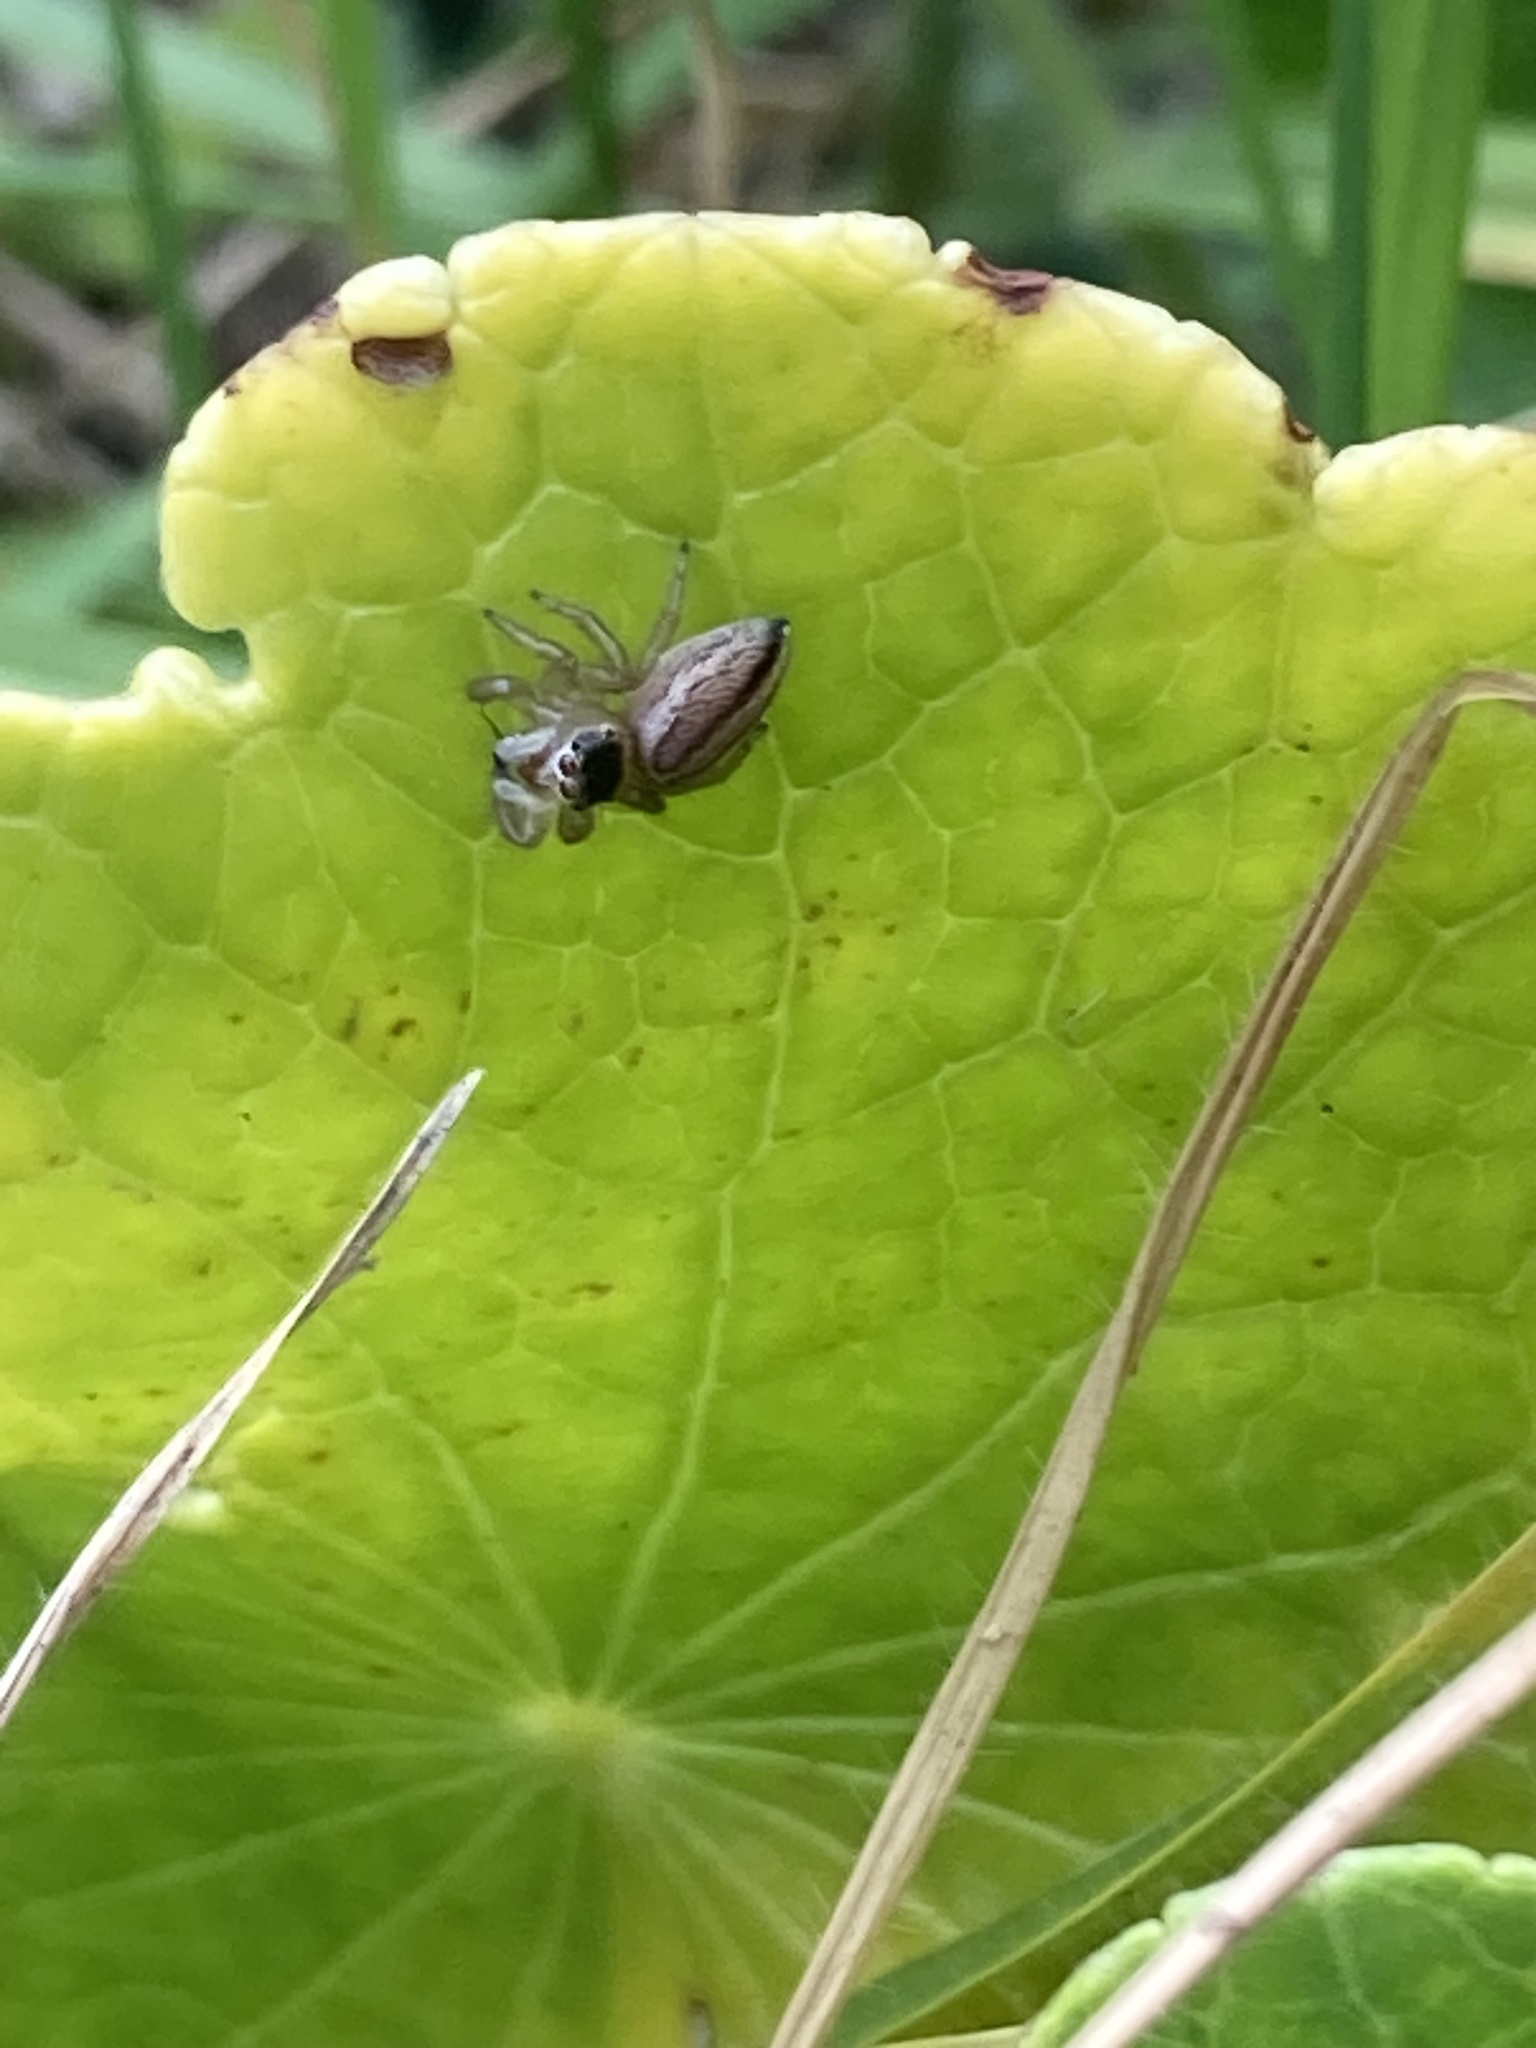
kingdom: Animalia
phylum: Arthropoda
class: Arachnida
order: Araneae
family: Salticidae
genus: Maratus
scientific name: Maratus scutulatus
